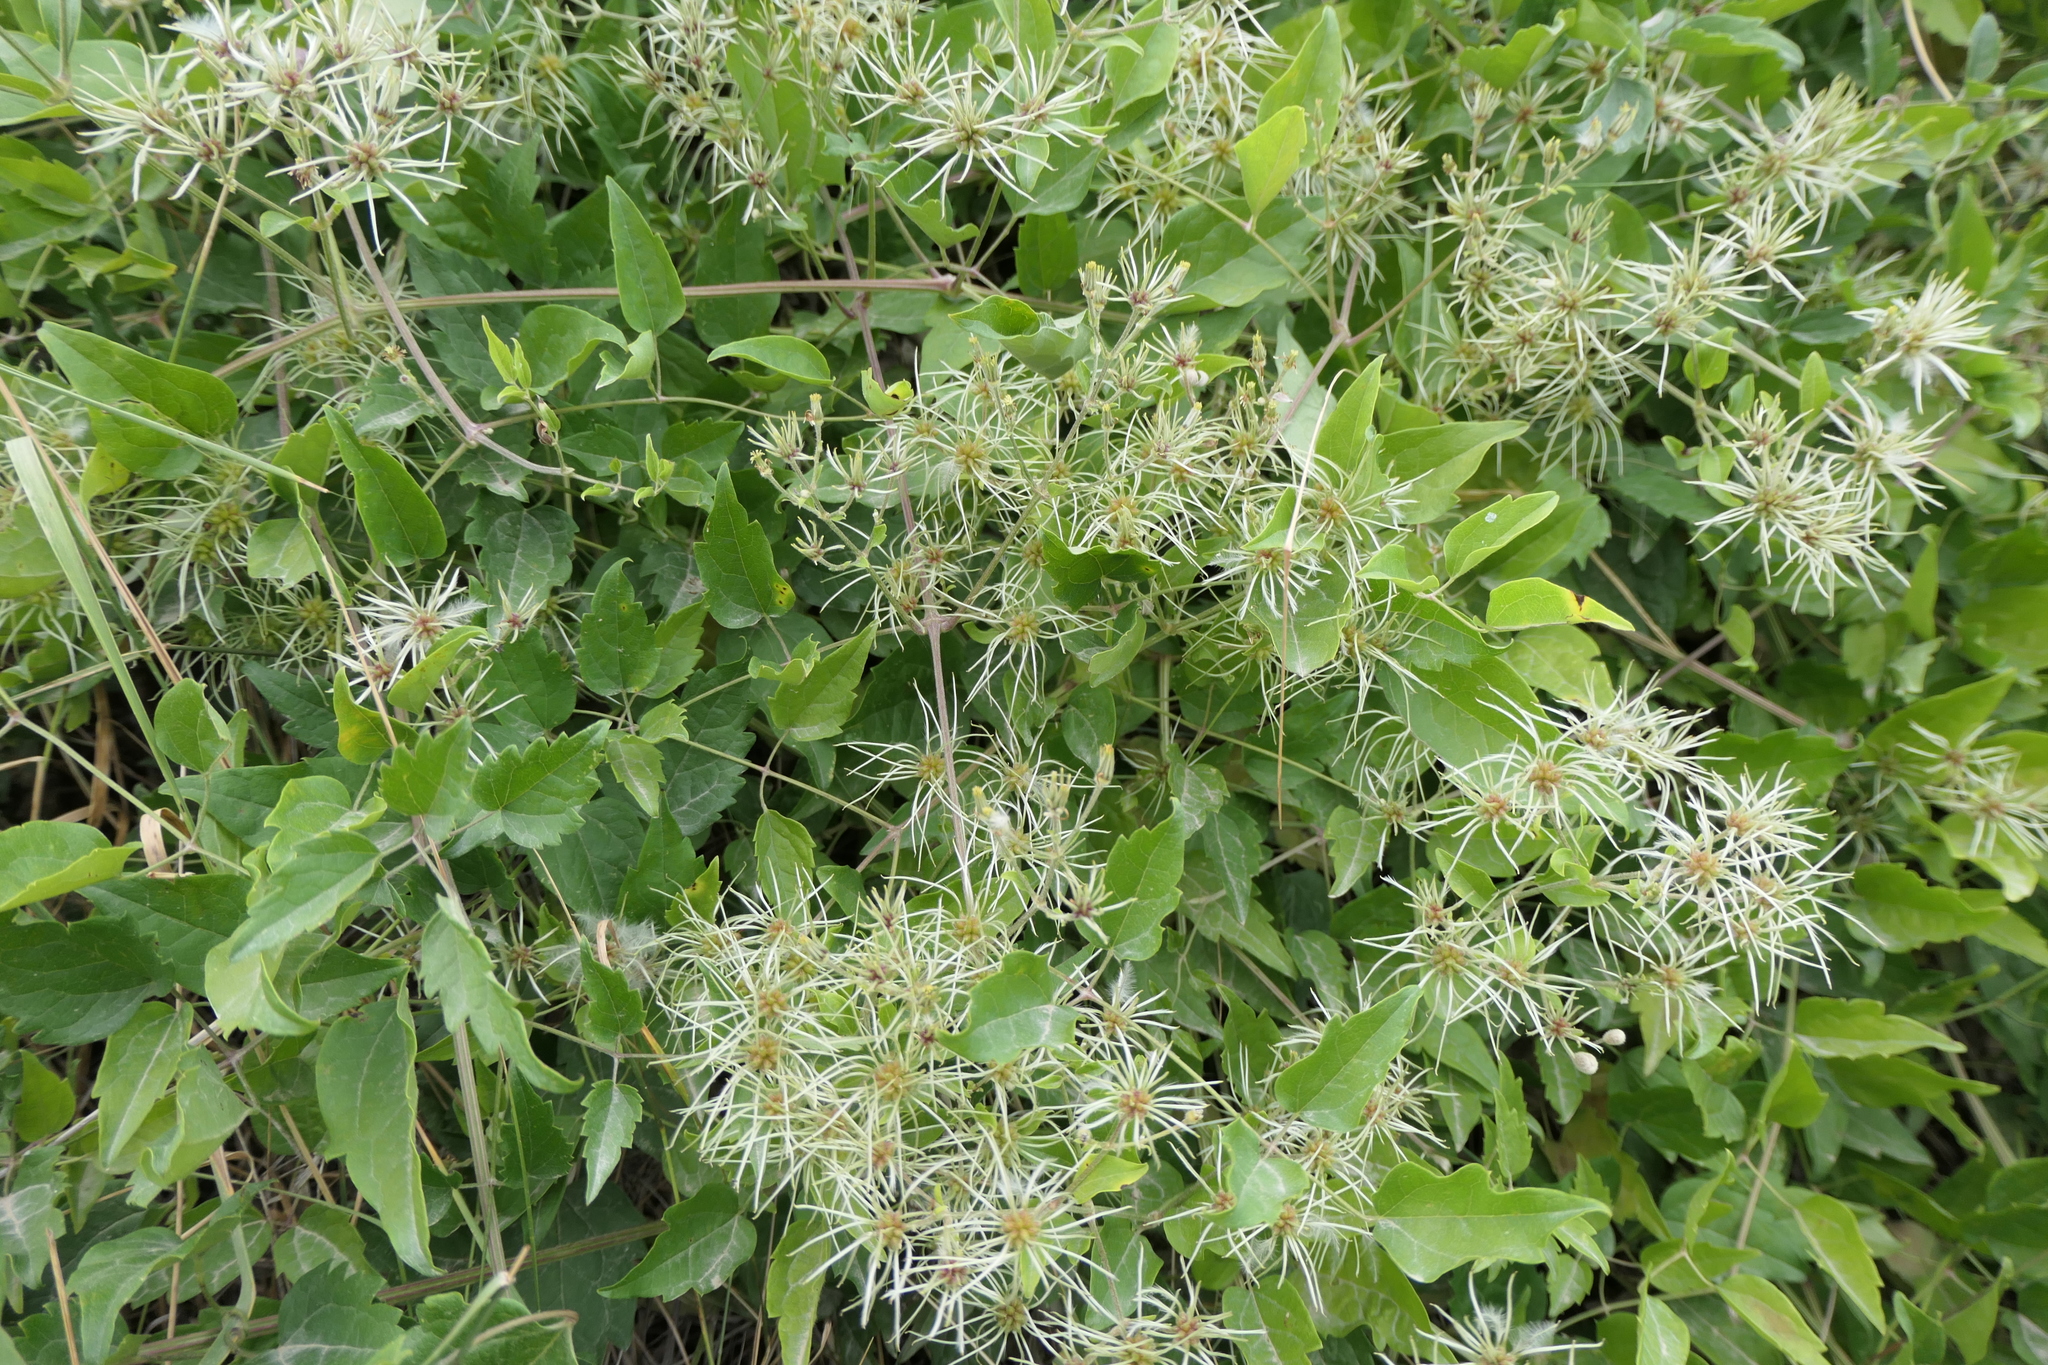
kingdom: Plantae
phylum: Tracheophyta
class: Magnoliopsida
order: Ranunculales
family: Ranunculaceae
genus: Clematis
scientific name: Clematis vitalba
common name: Evergreen clematis
